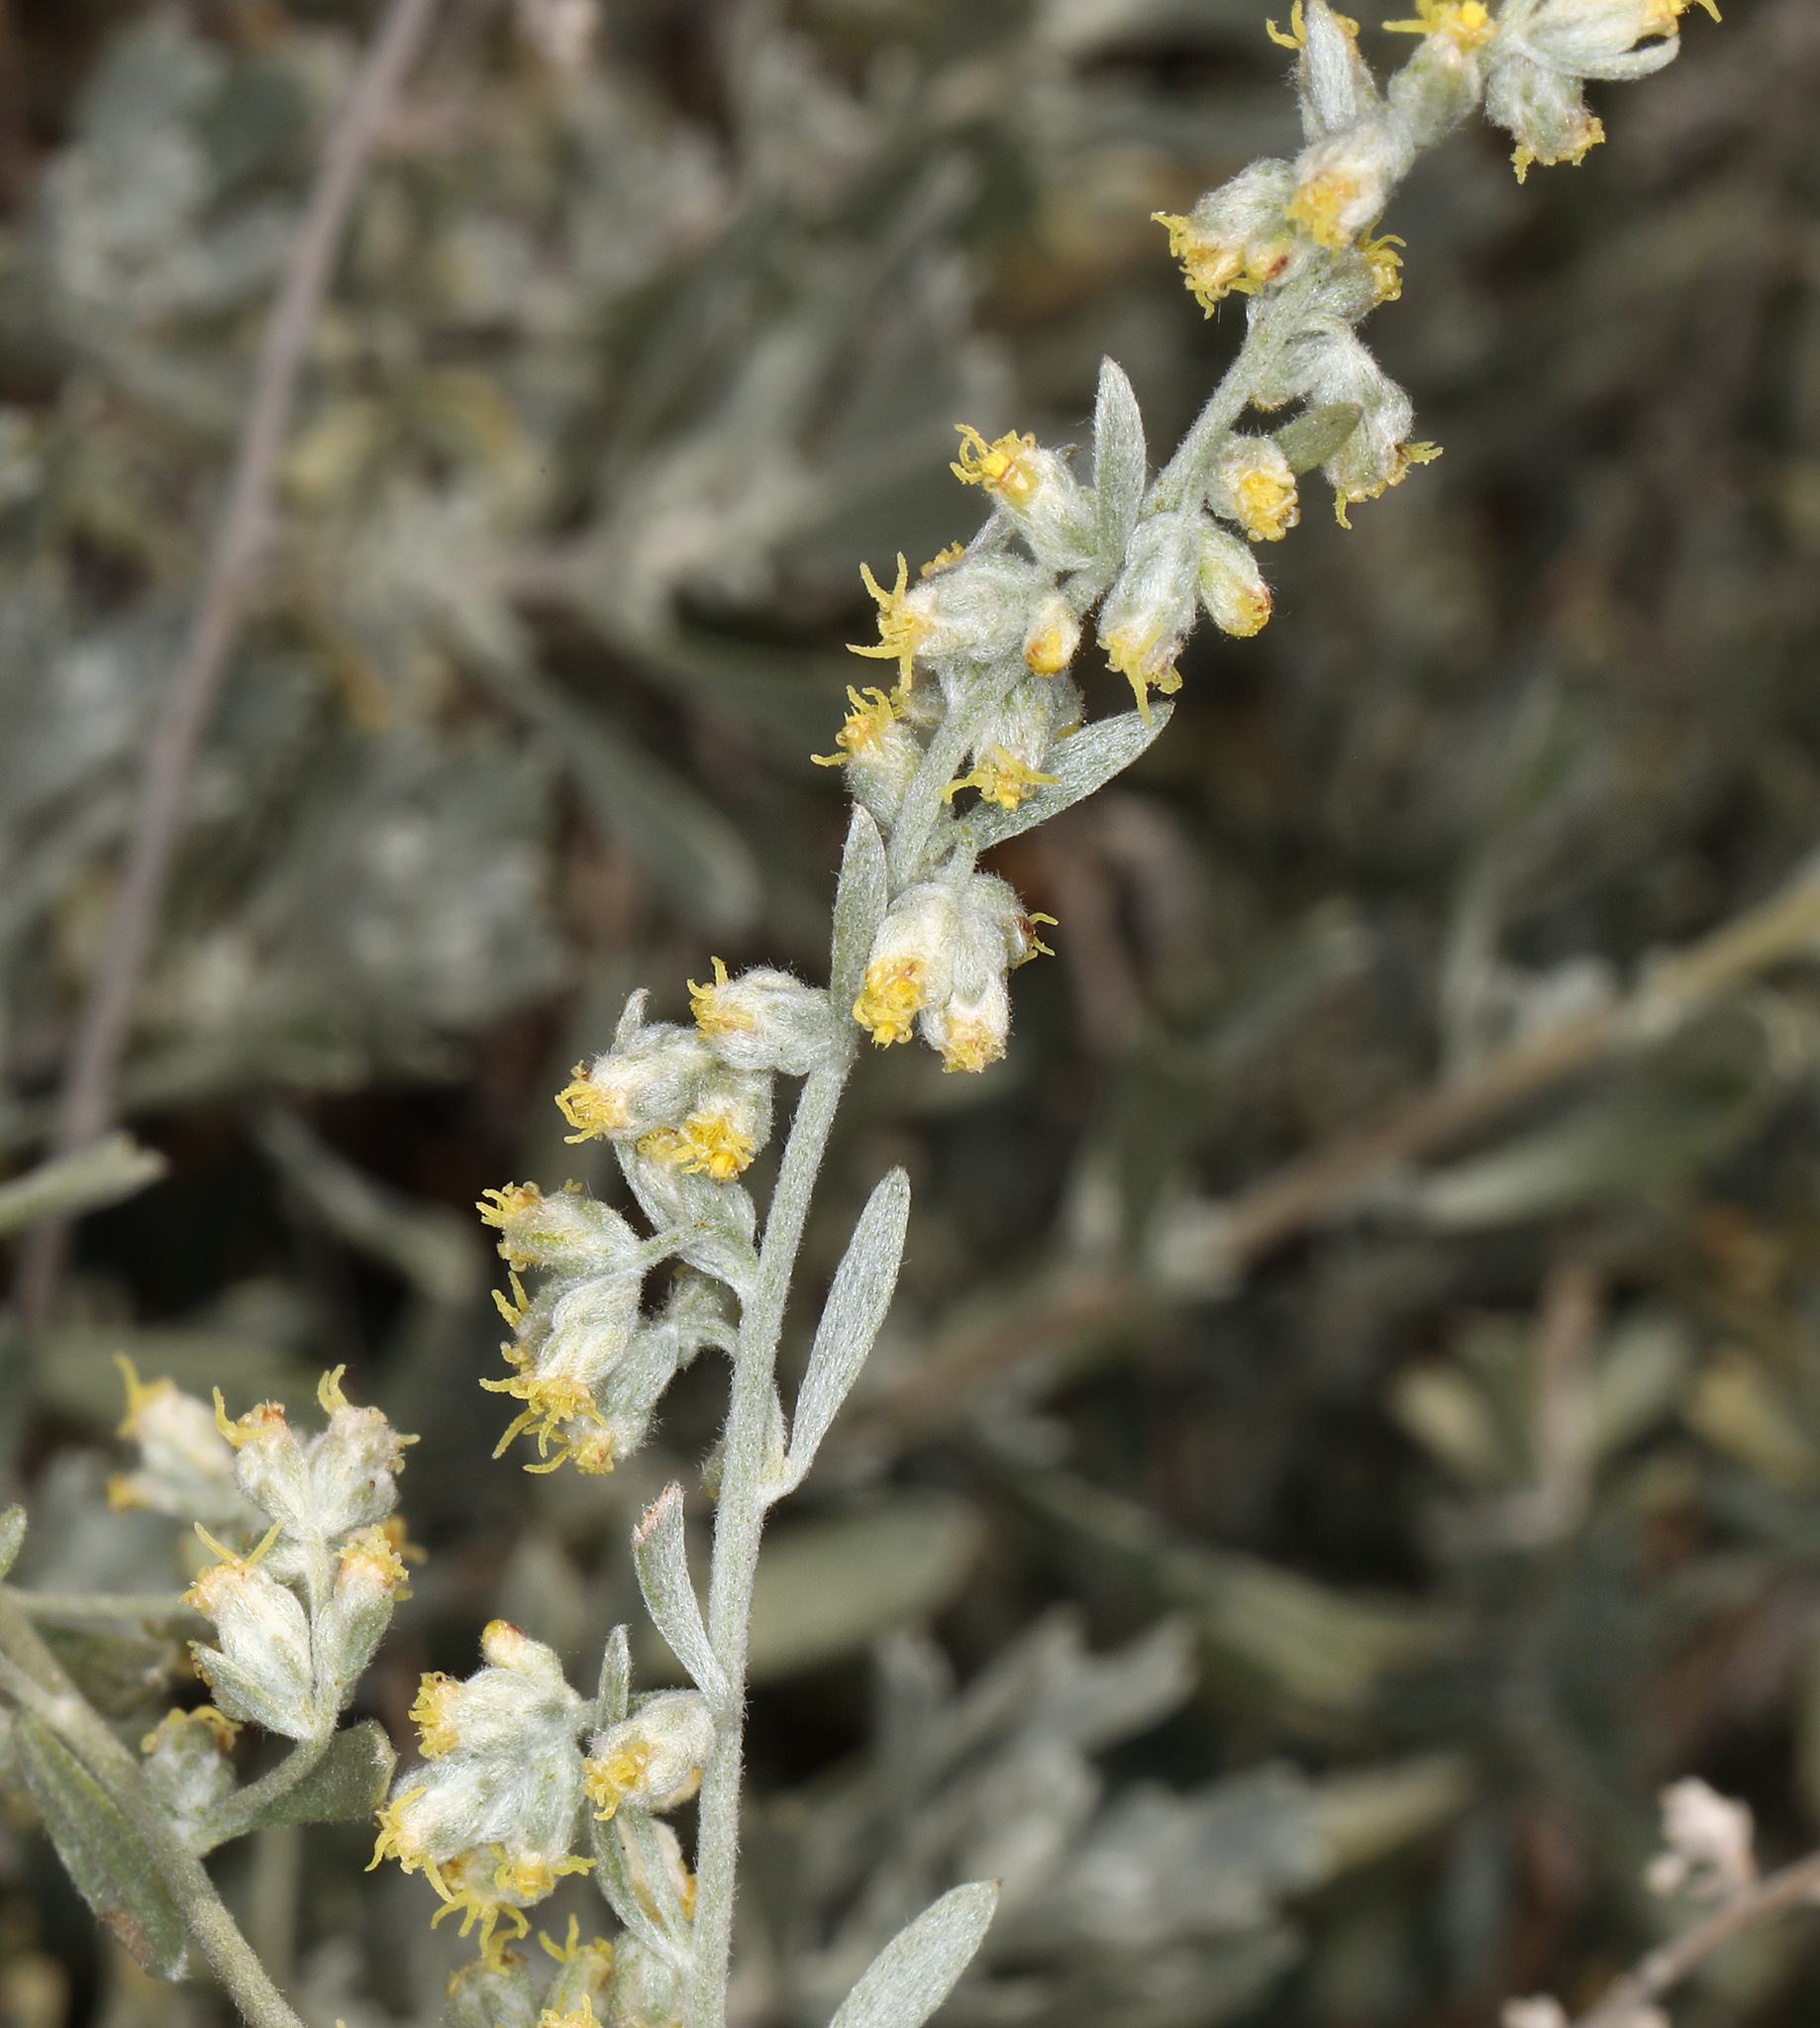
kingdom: Plantae
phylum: Tracheophyta
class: Magnoliopsida
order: Asterales
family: Asteraceae
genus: Artemisia
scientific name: Artemisia bigelovii
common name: Bigelow sagebrush
